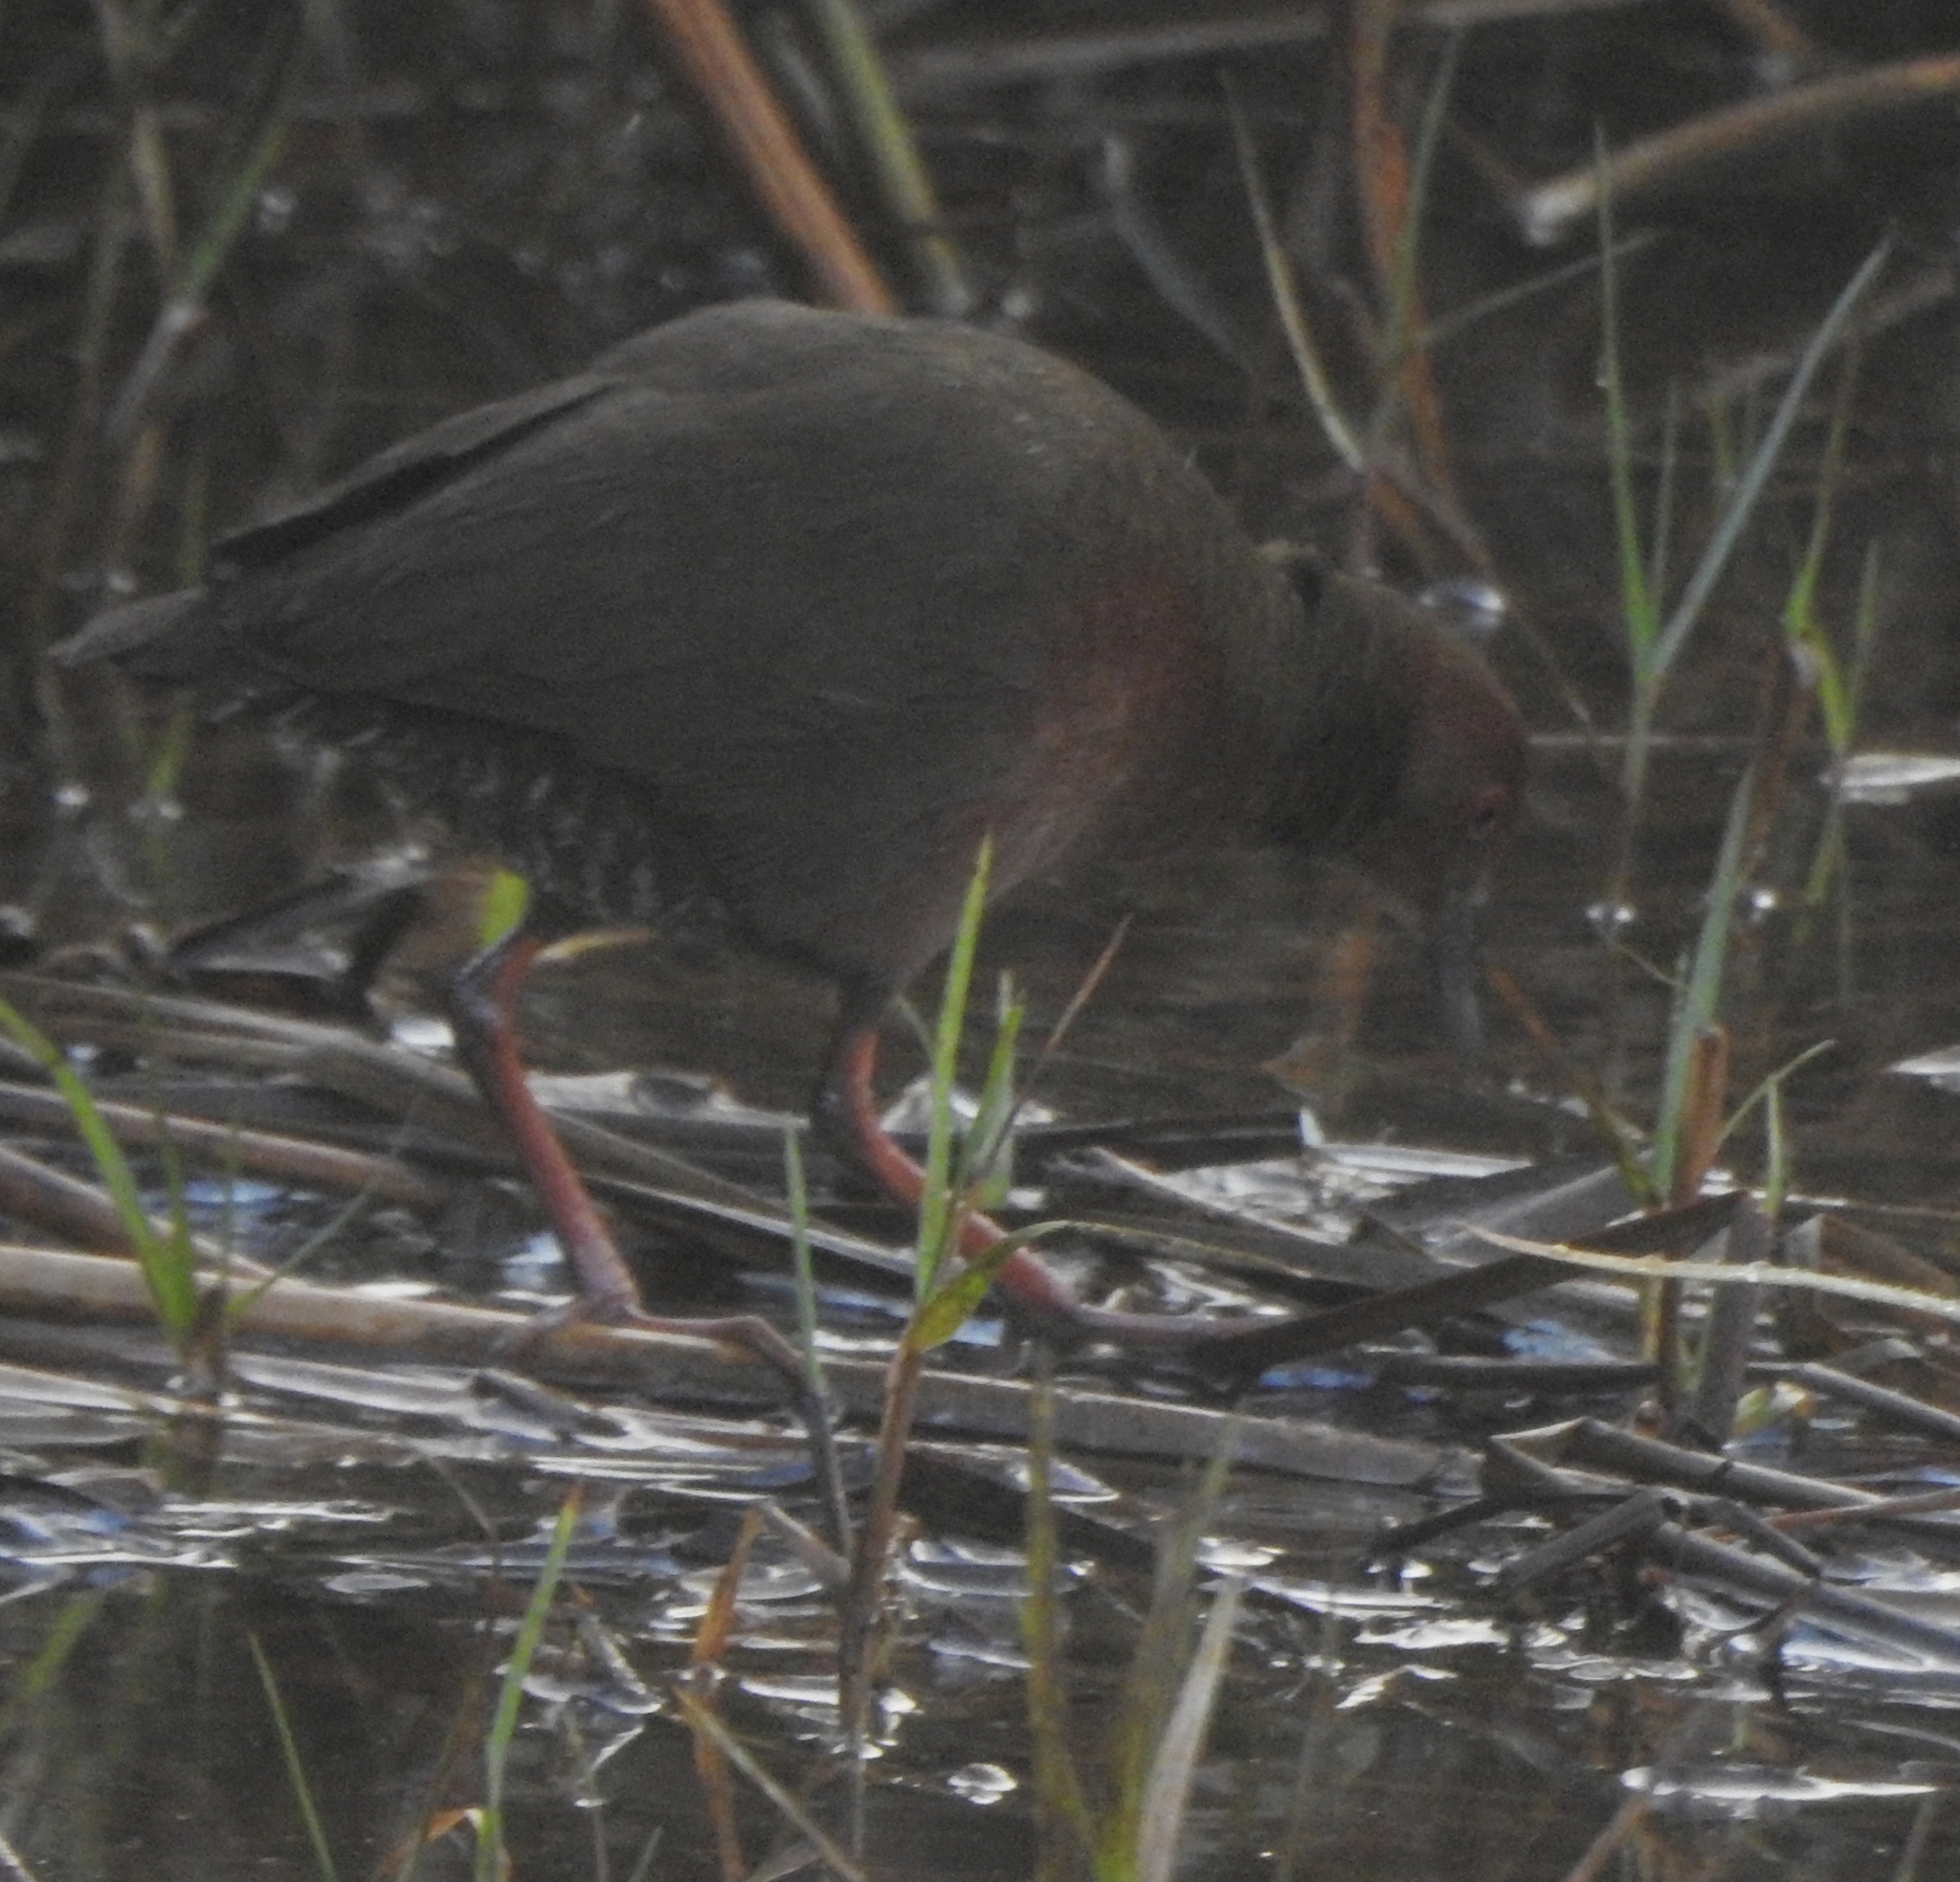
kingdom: Animalia
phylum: Chordata
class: Aves
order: Gruiformes
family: Rallidae
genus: Porzana
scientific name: Porzana fusca
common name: Ruddy-breasted crake
